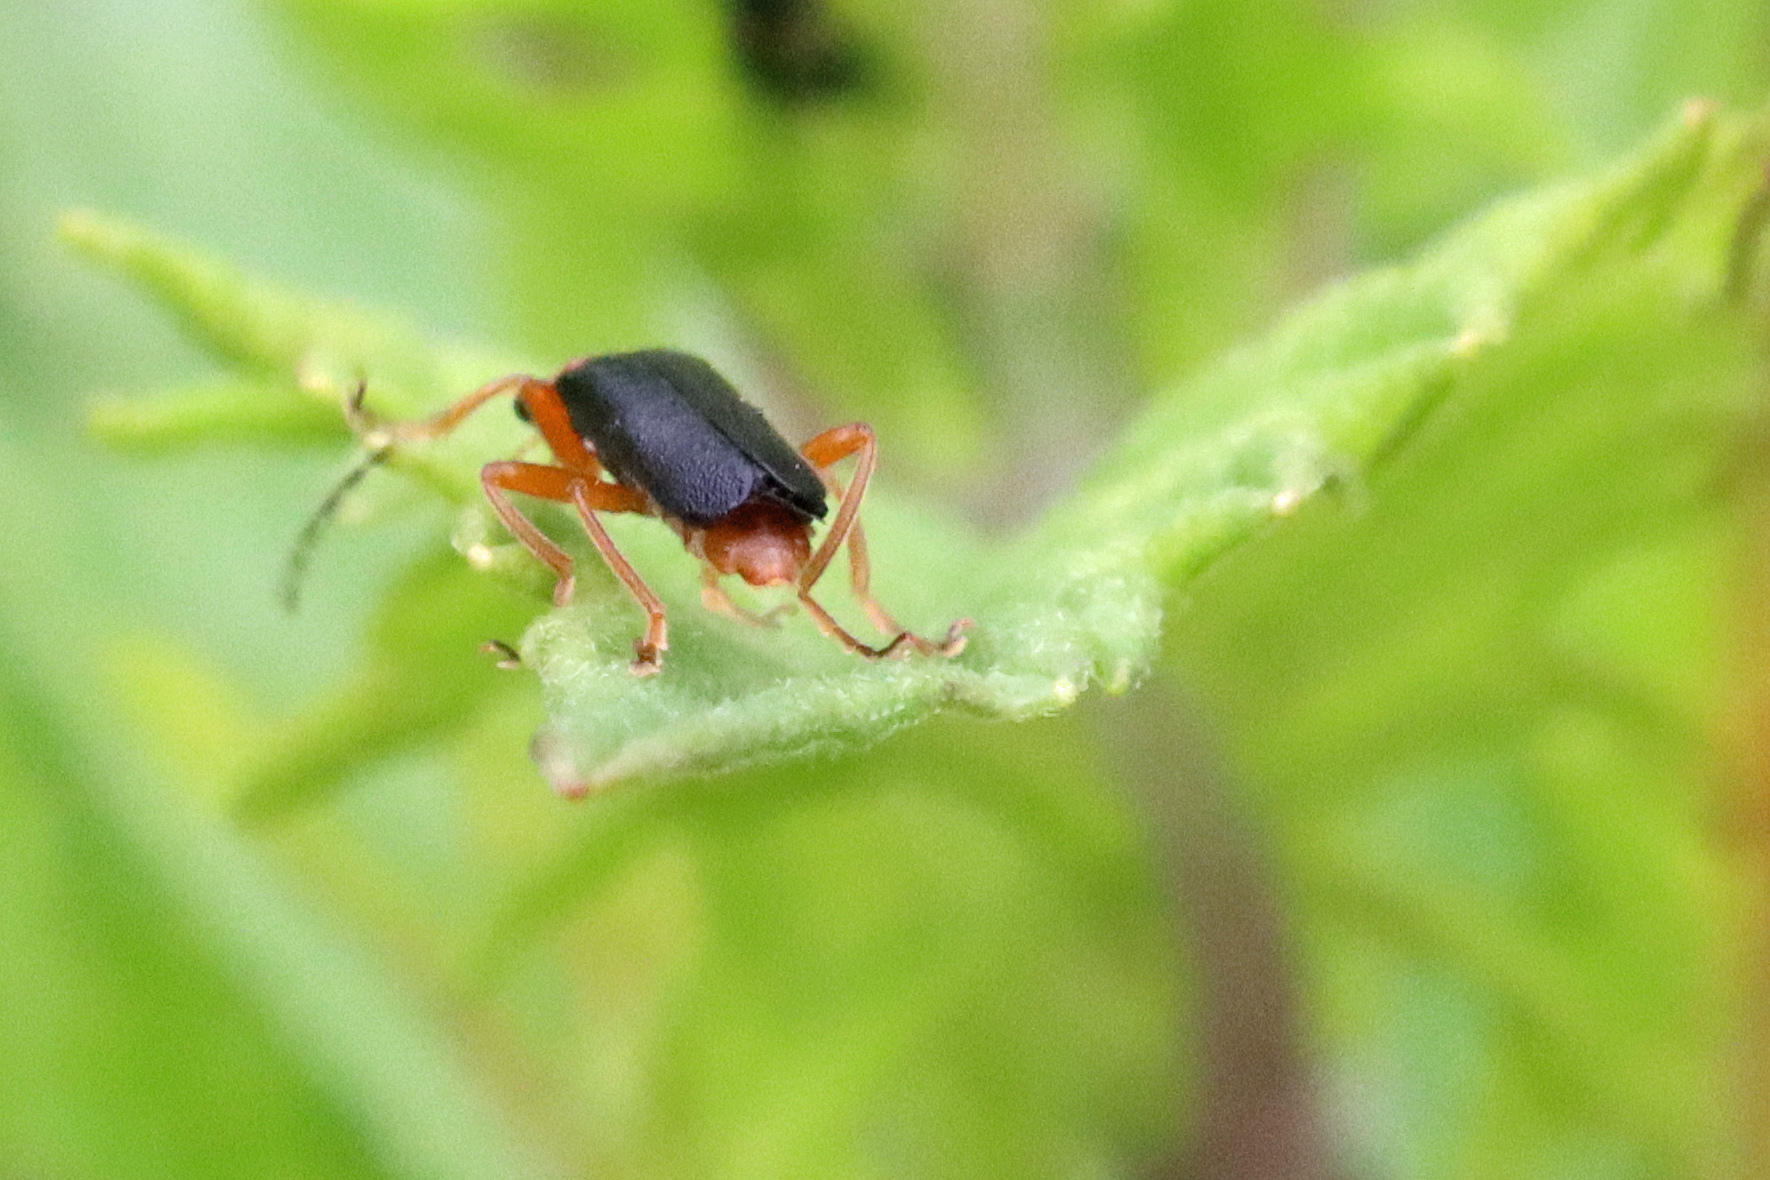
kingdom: Animalia
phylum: Arthropoda
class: Insecta
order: Coleoptera
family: Cantharidae
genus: Cantharis
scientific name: Cantharis nigra
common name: Cantharid beetle
